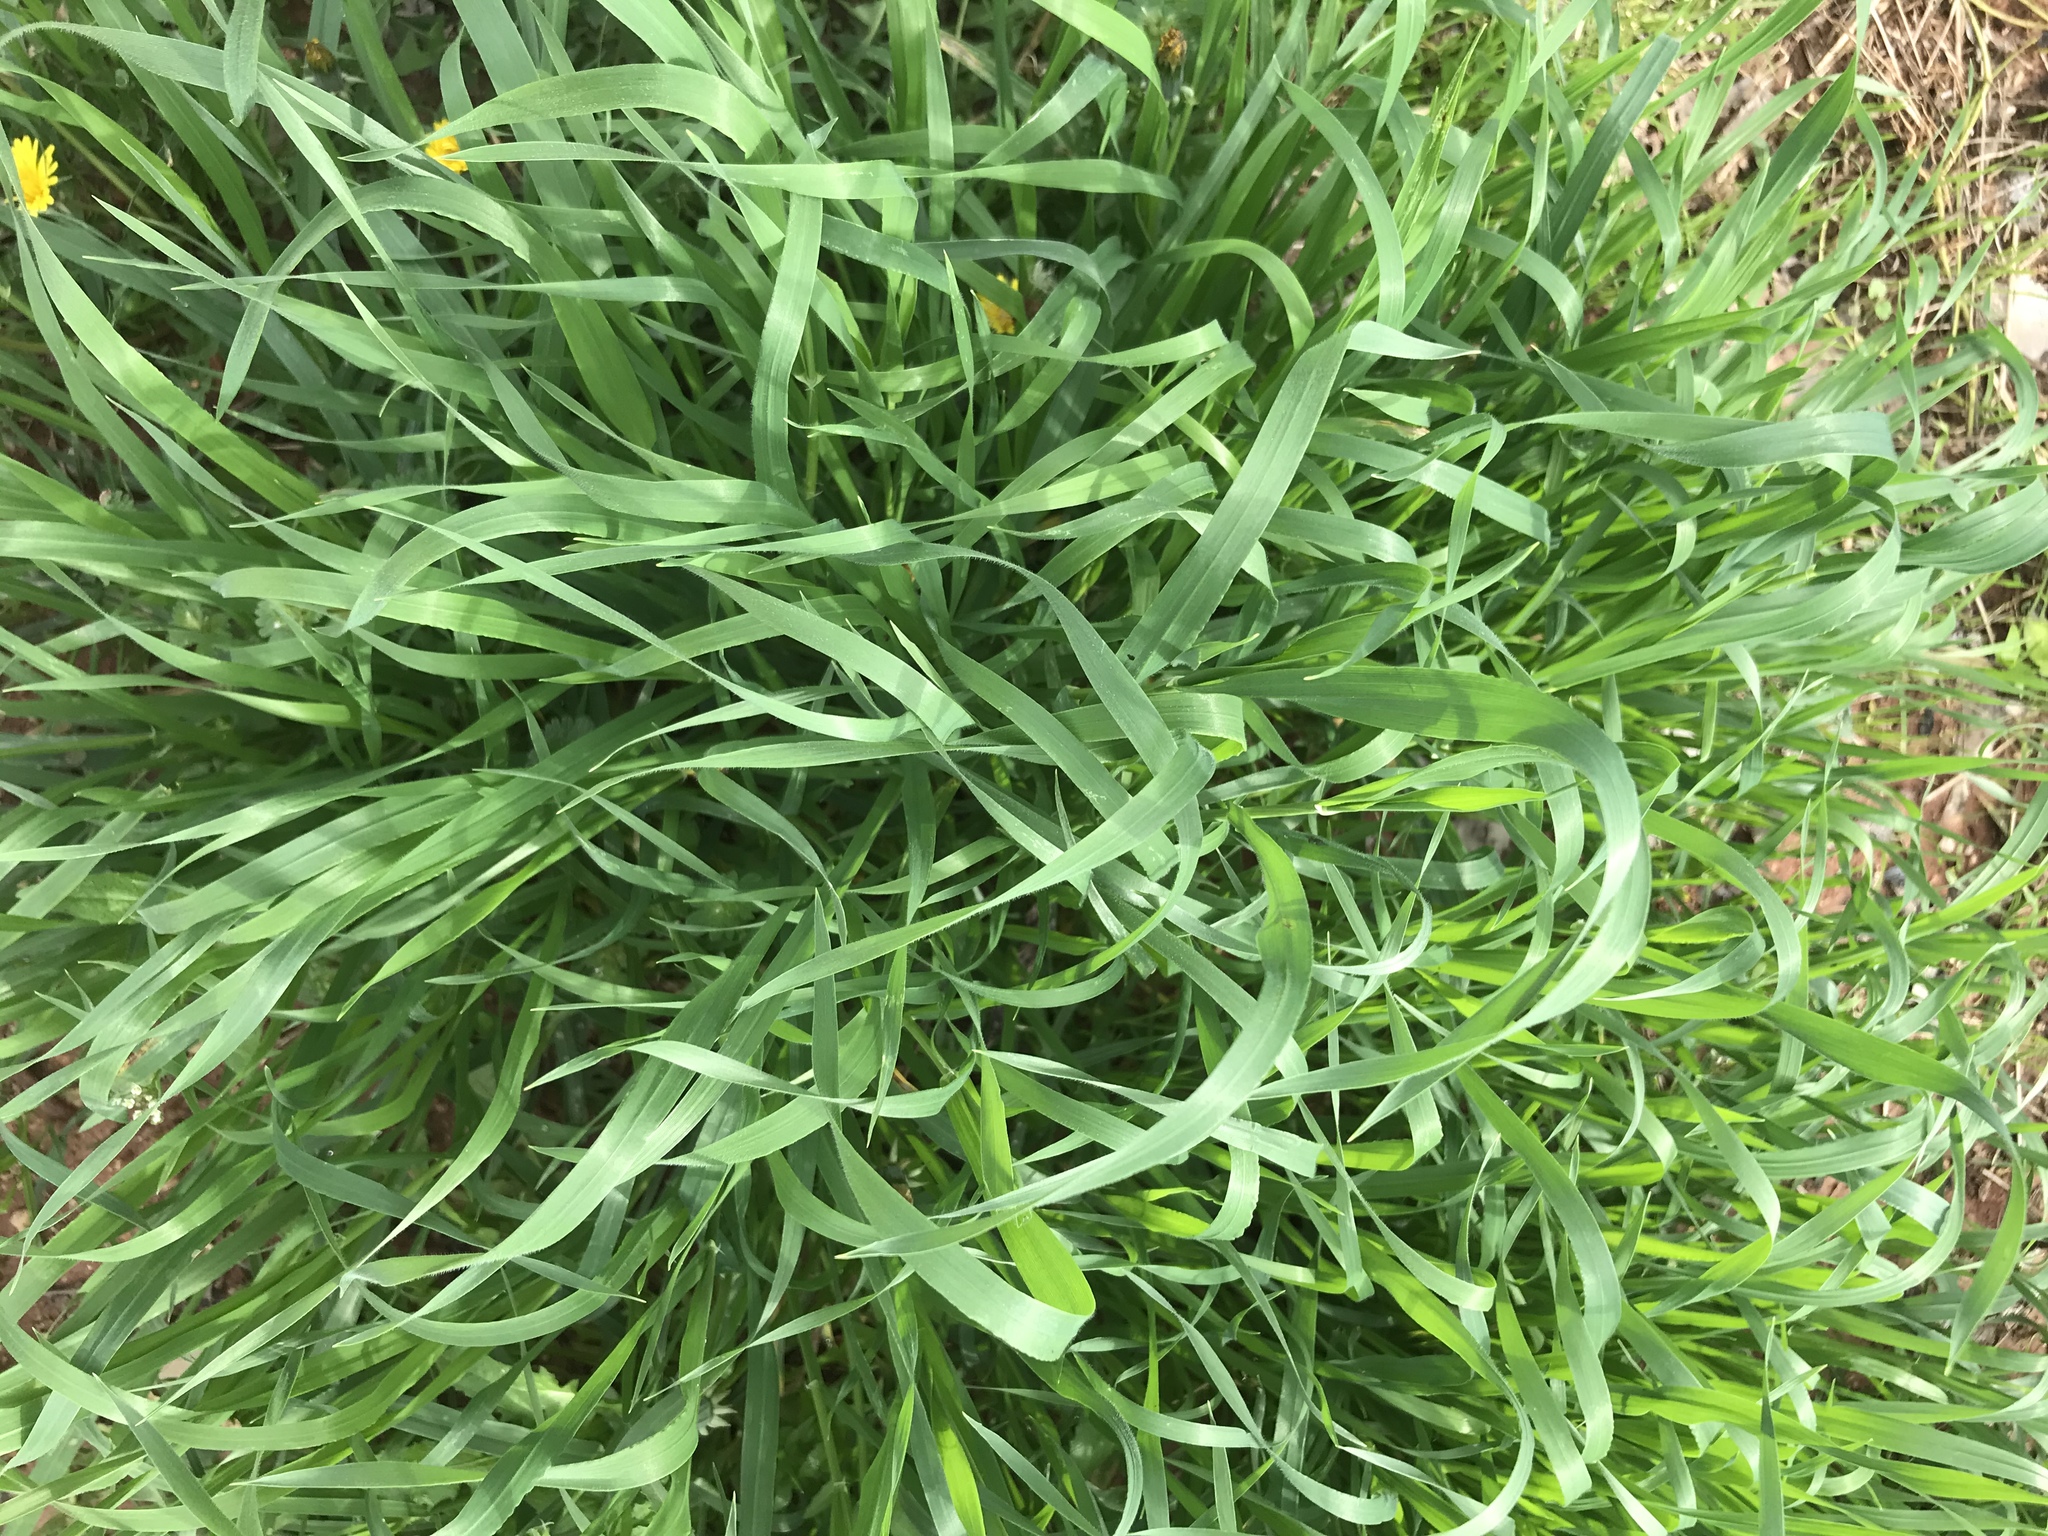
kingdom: Plantae
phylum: Tracheophyta
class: Liliopsida
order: Poales
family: Poaceae
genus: Hordeum
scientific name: Hordeum murinum
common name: Wall barley
